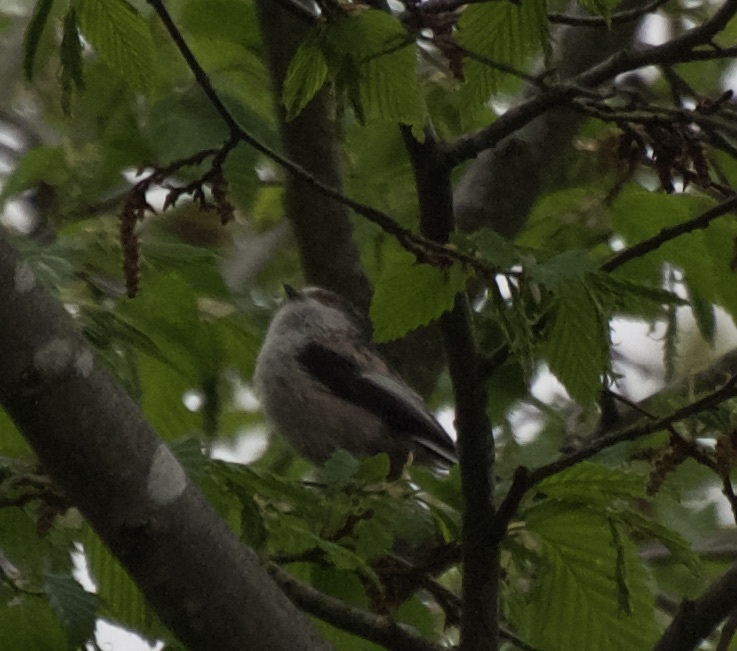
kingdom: Animalia
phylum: Chordata
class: Aves
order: Passeriformes
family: Aegithalidae
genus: Aegithalos
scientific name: Aegithalos caudatus
